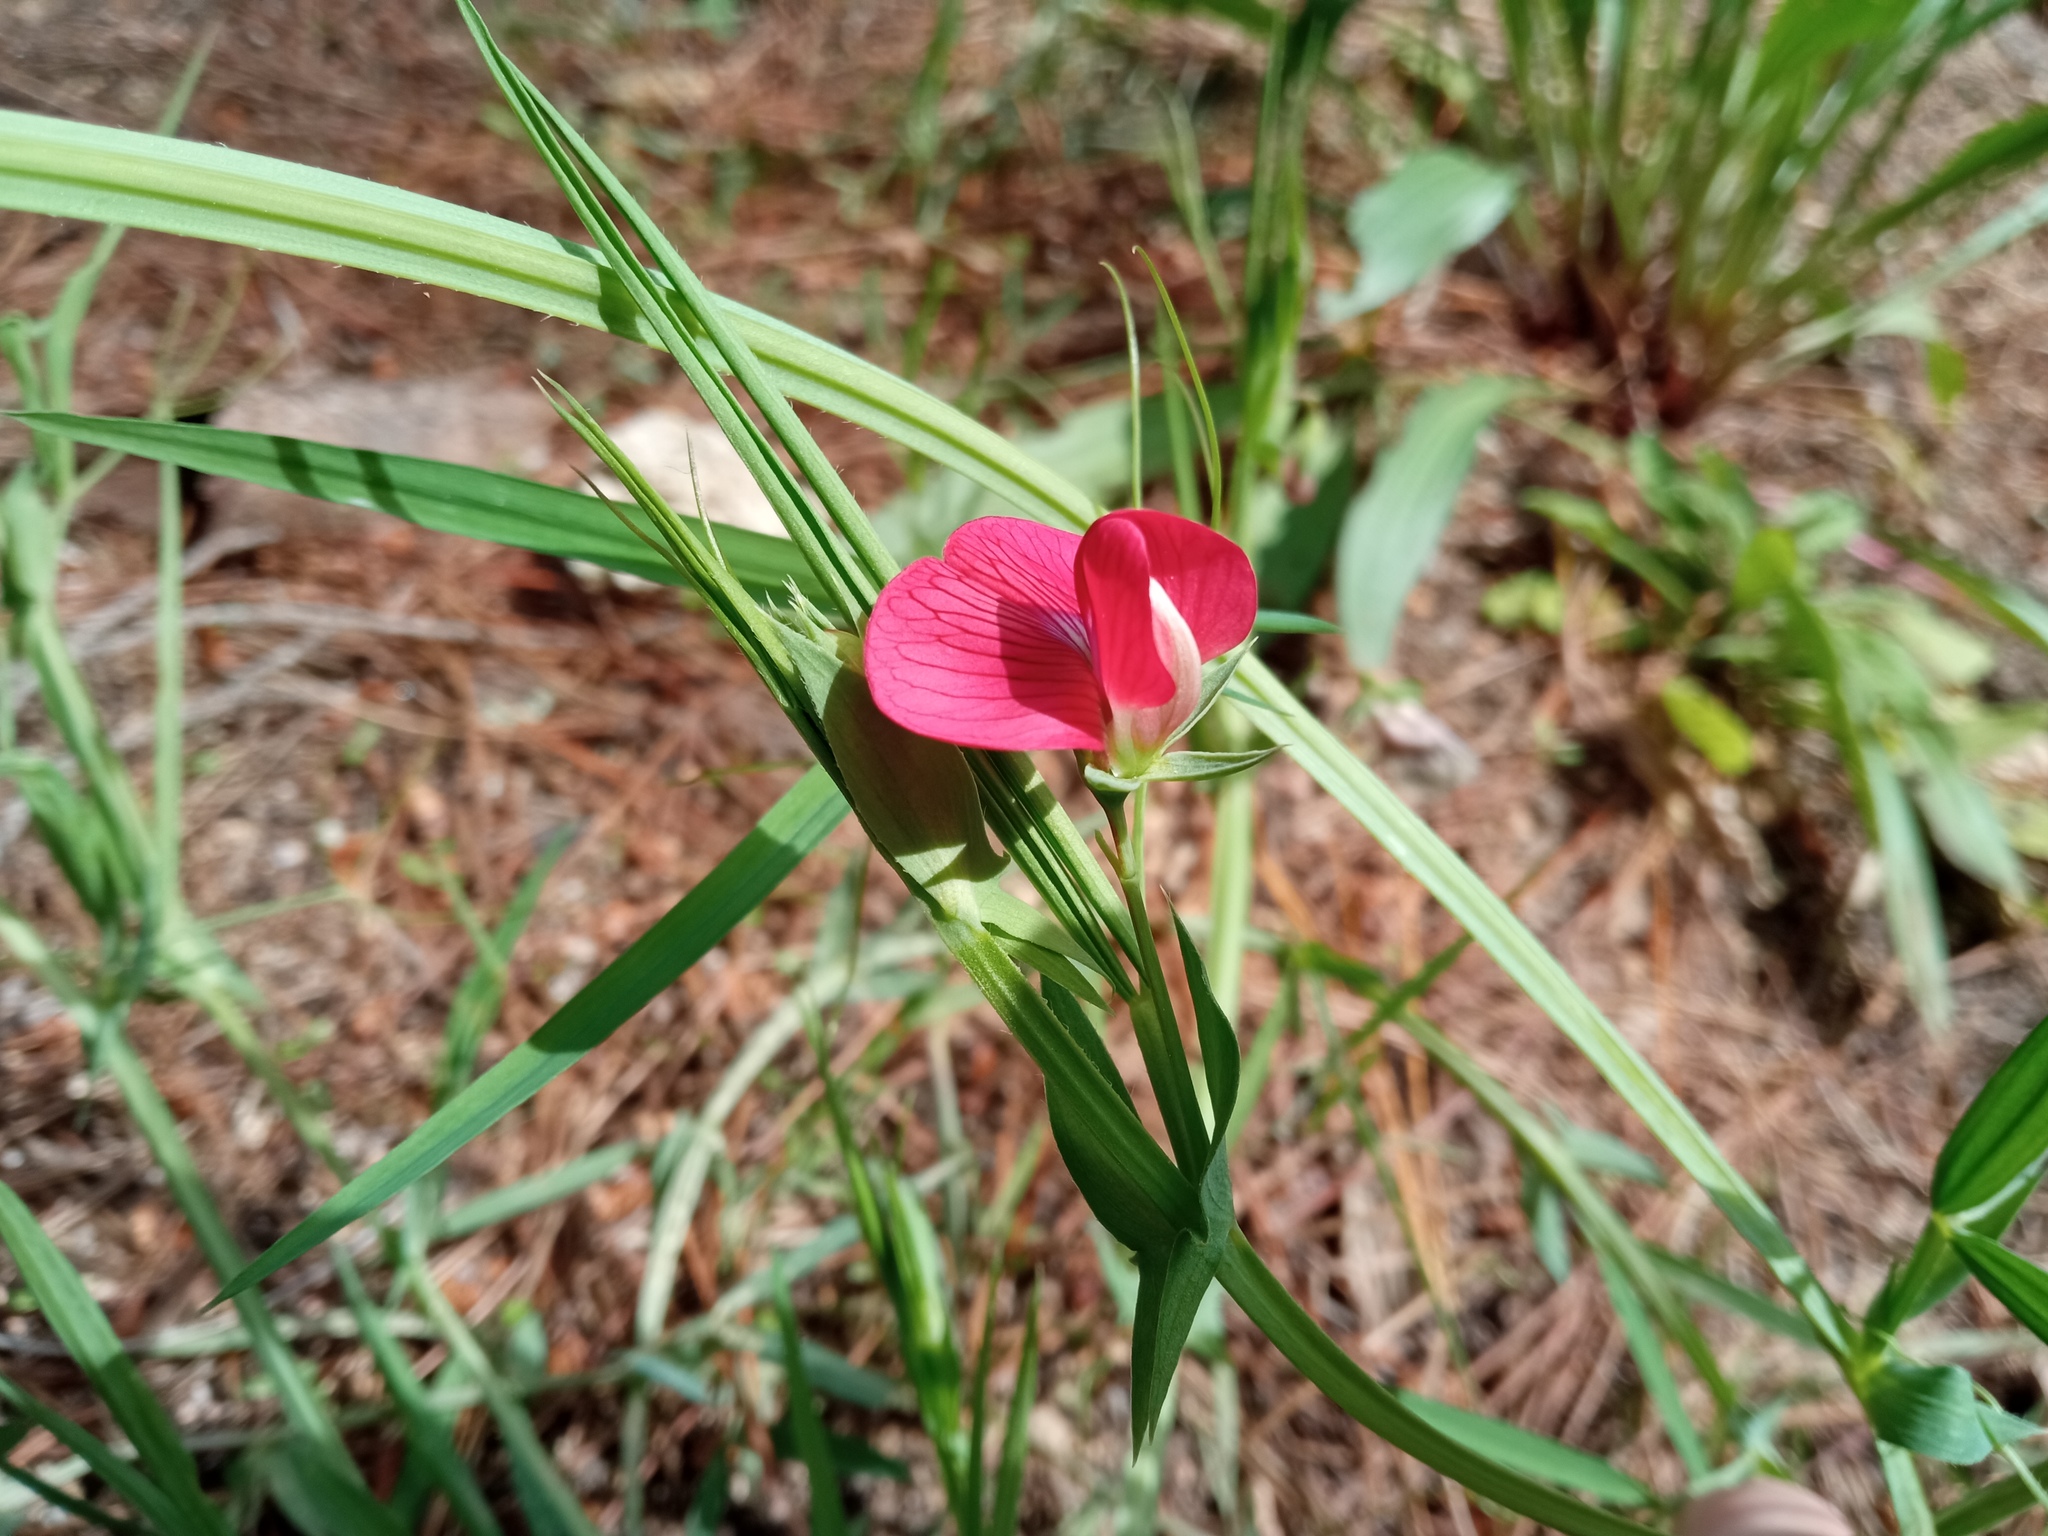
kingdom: Plantae
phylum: Tracheophyta
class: Magnoliopsida
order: Fabales
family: Fabaceae
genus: Lathyrus
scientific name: Lathyrus cicera
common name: Red vetchling
